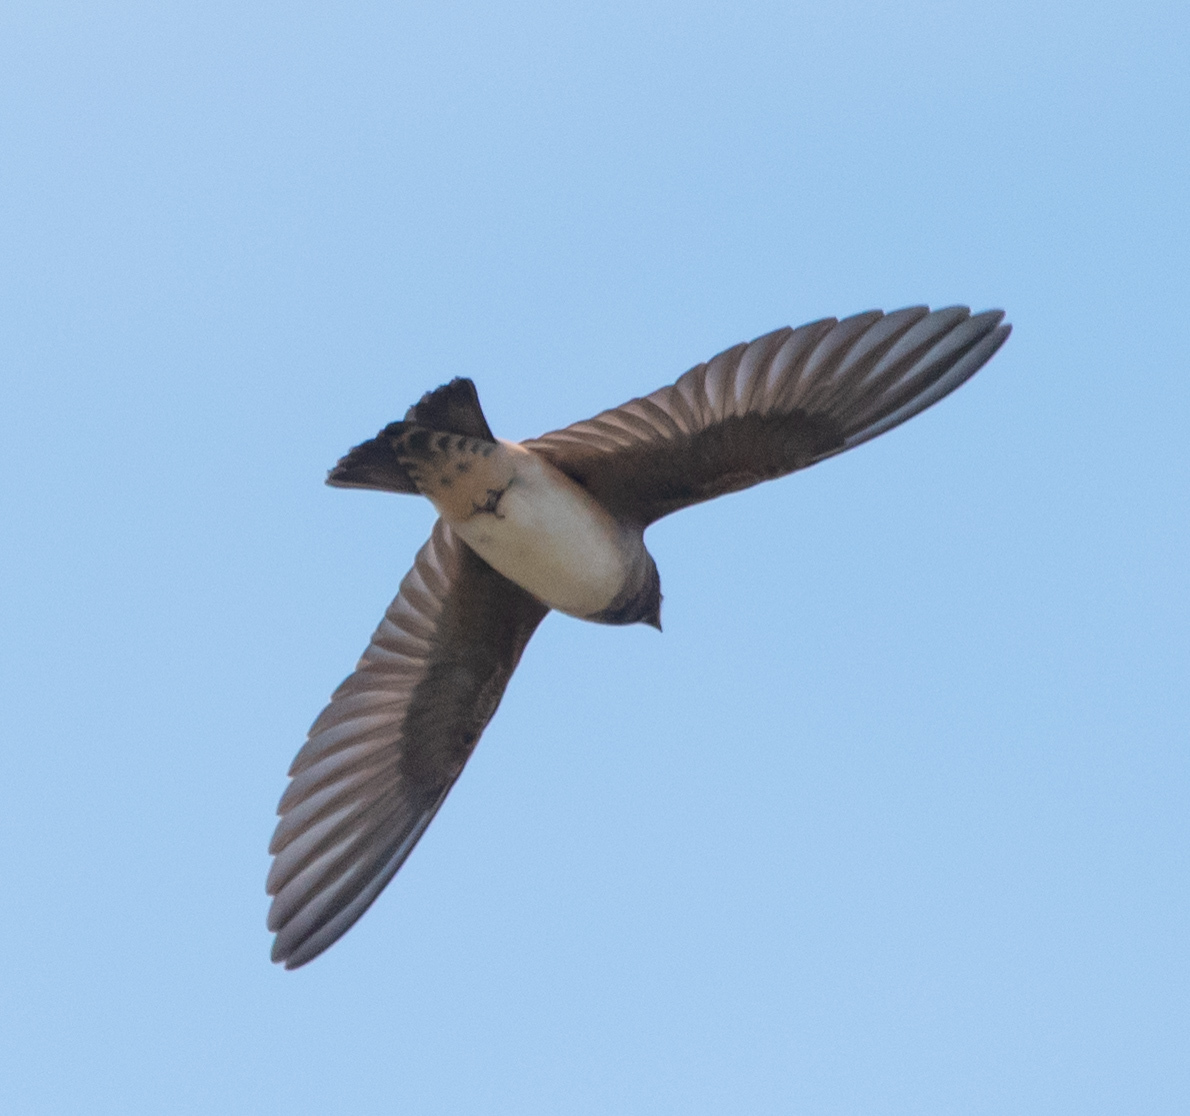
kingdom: Animalia
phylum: Chordata
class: Aves
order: Passeriformes
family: Hirundinidae
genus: Petrochelidon
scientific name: Petrochelidon pyrrhonota
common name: American cliff swallow
